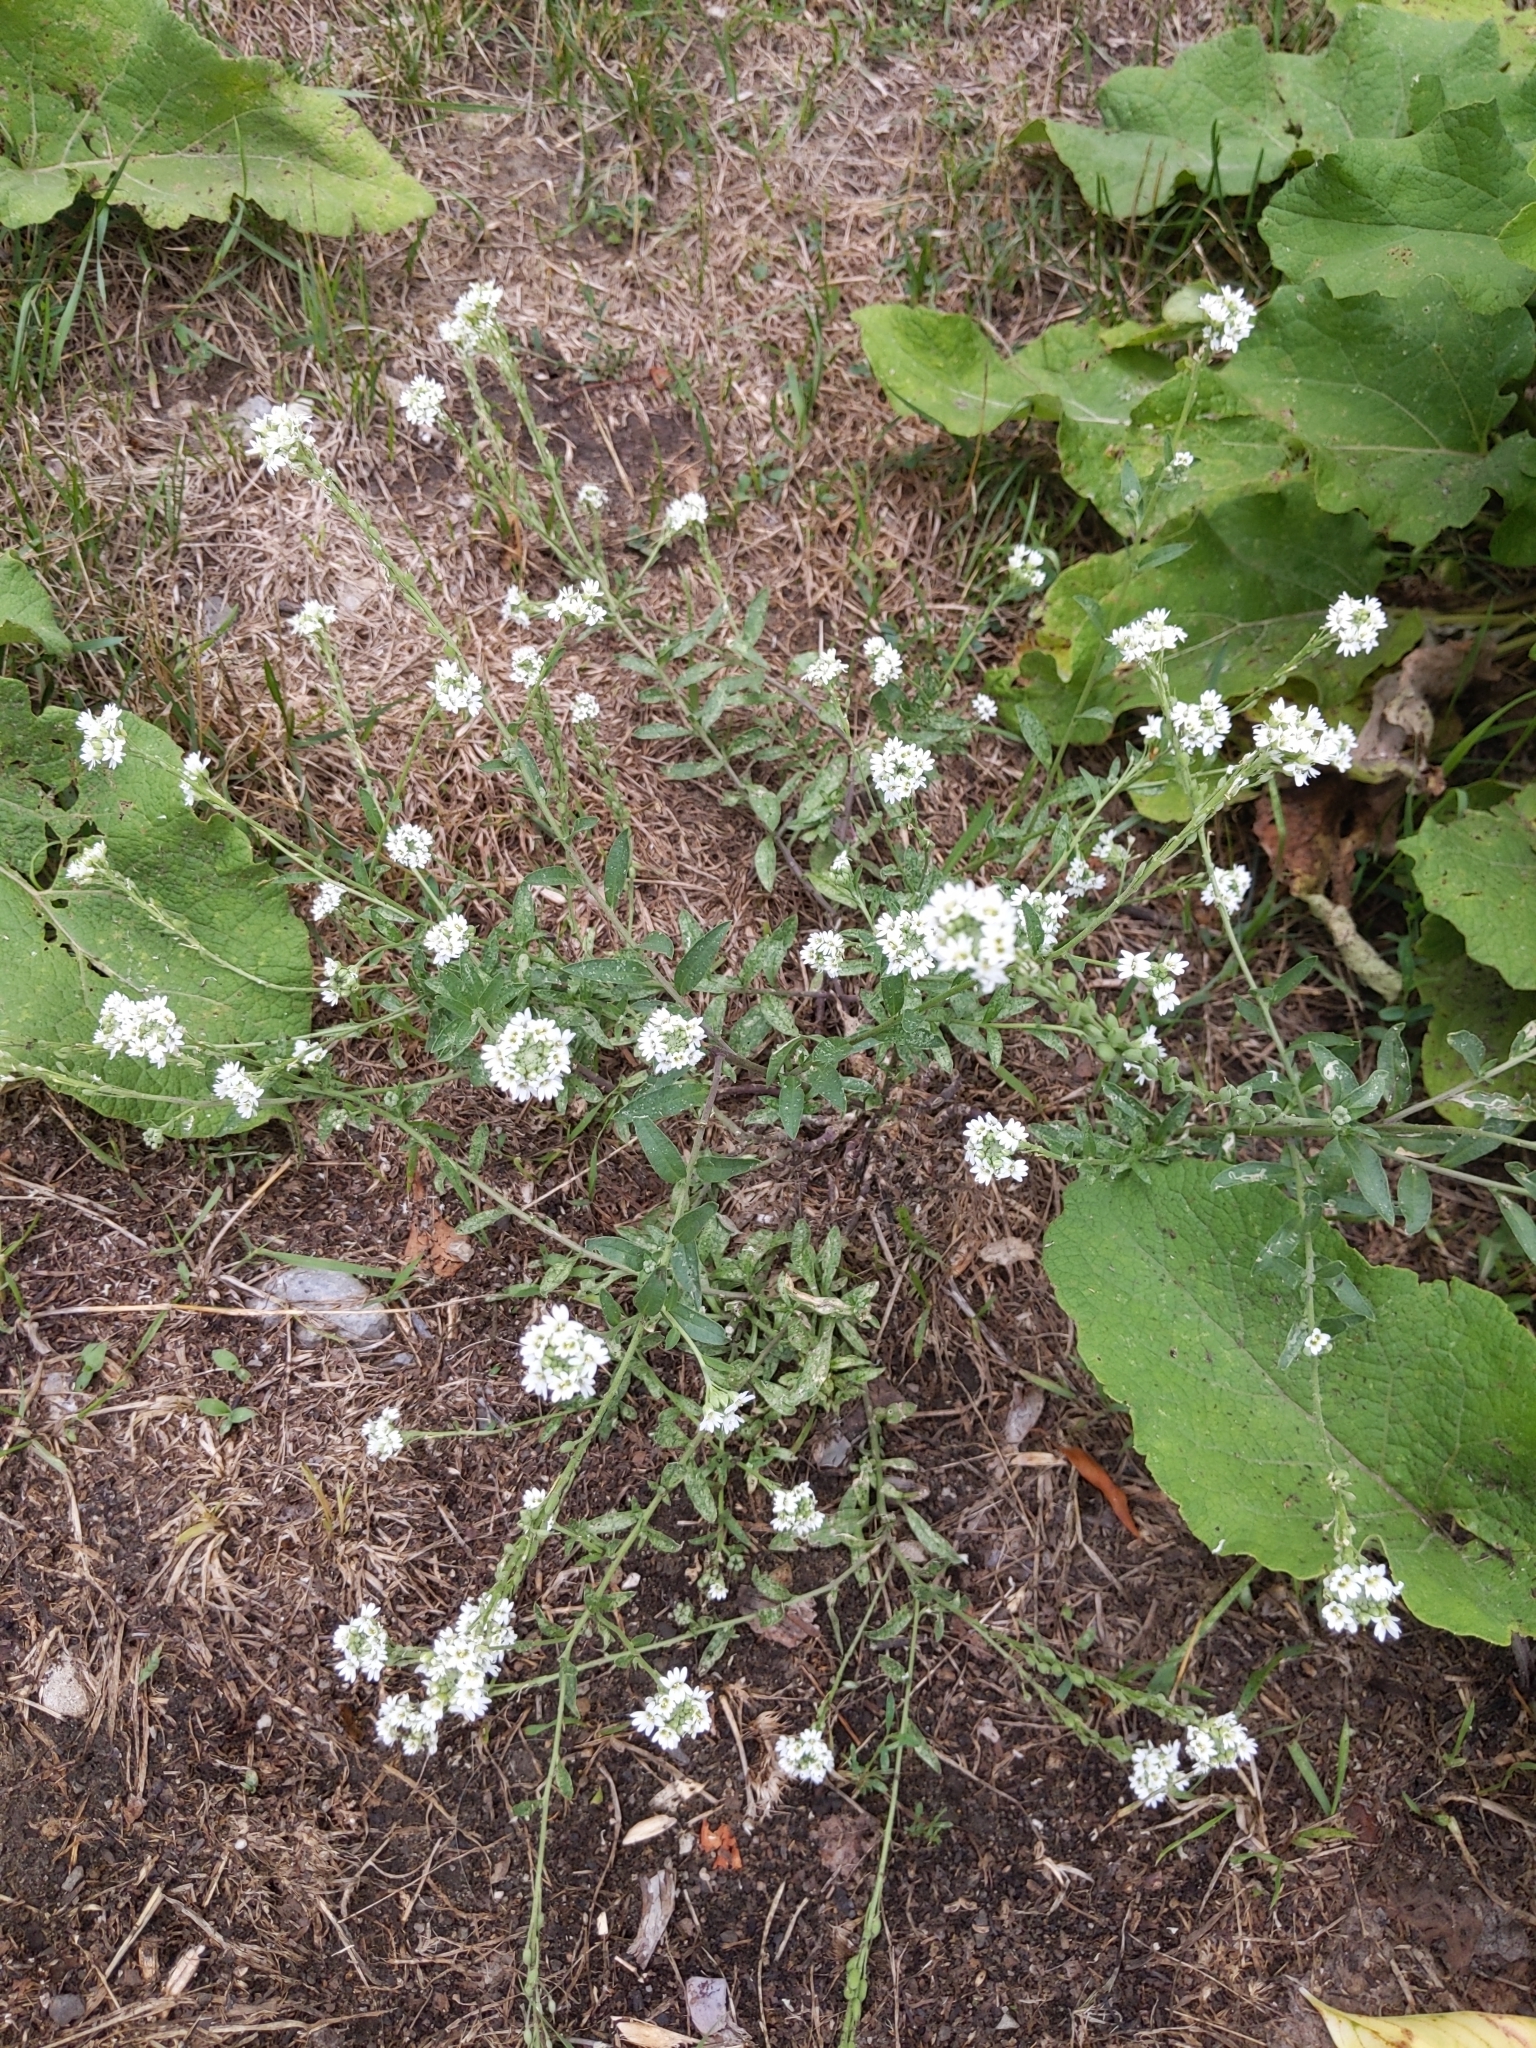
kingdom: Plantae
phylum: Tracheophyta
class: Magnoliopsida
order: Brassicales
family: Brassicaceae
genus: Berteroa
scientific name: Berteroa incana
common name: Hoary alison
